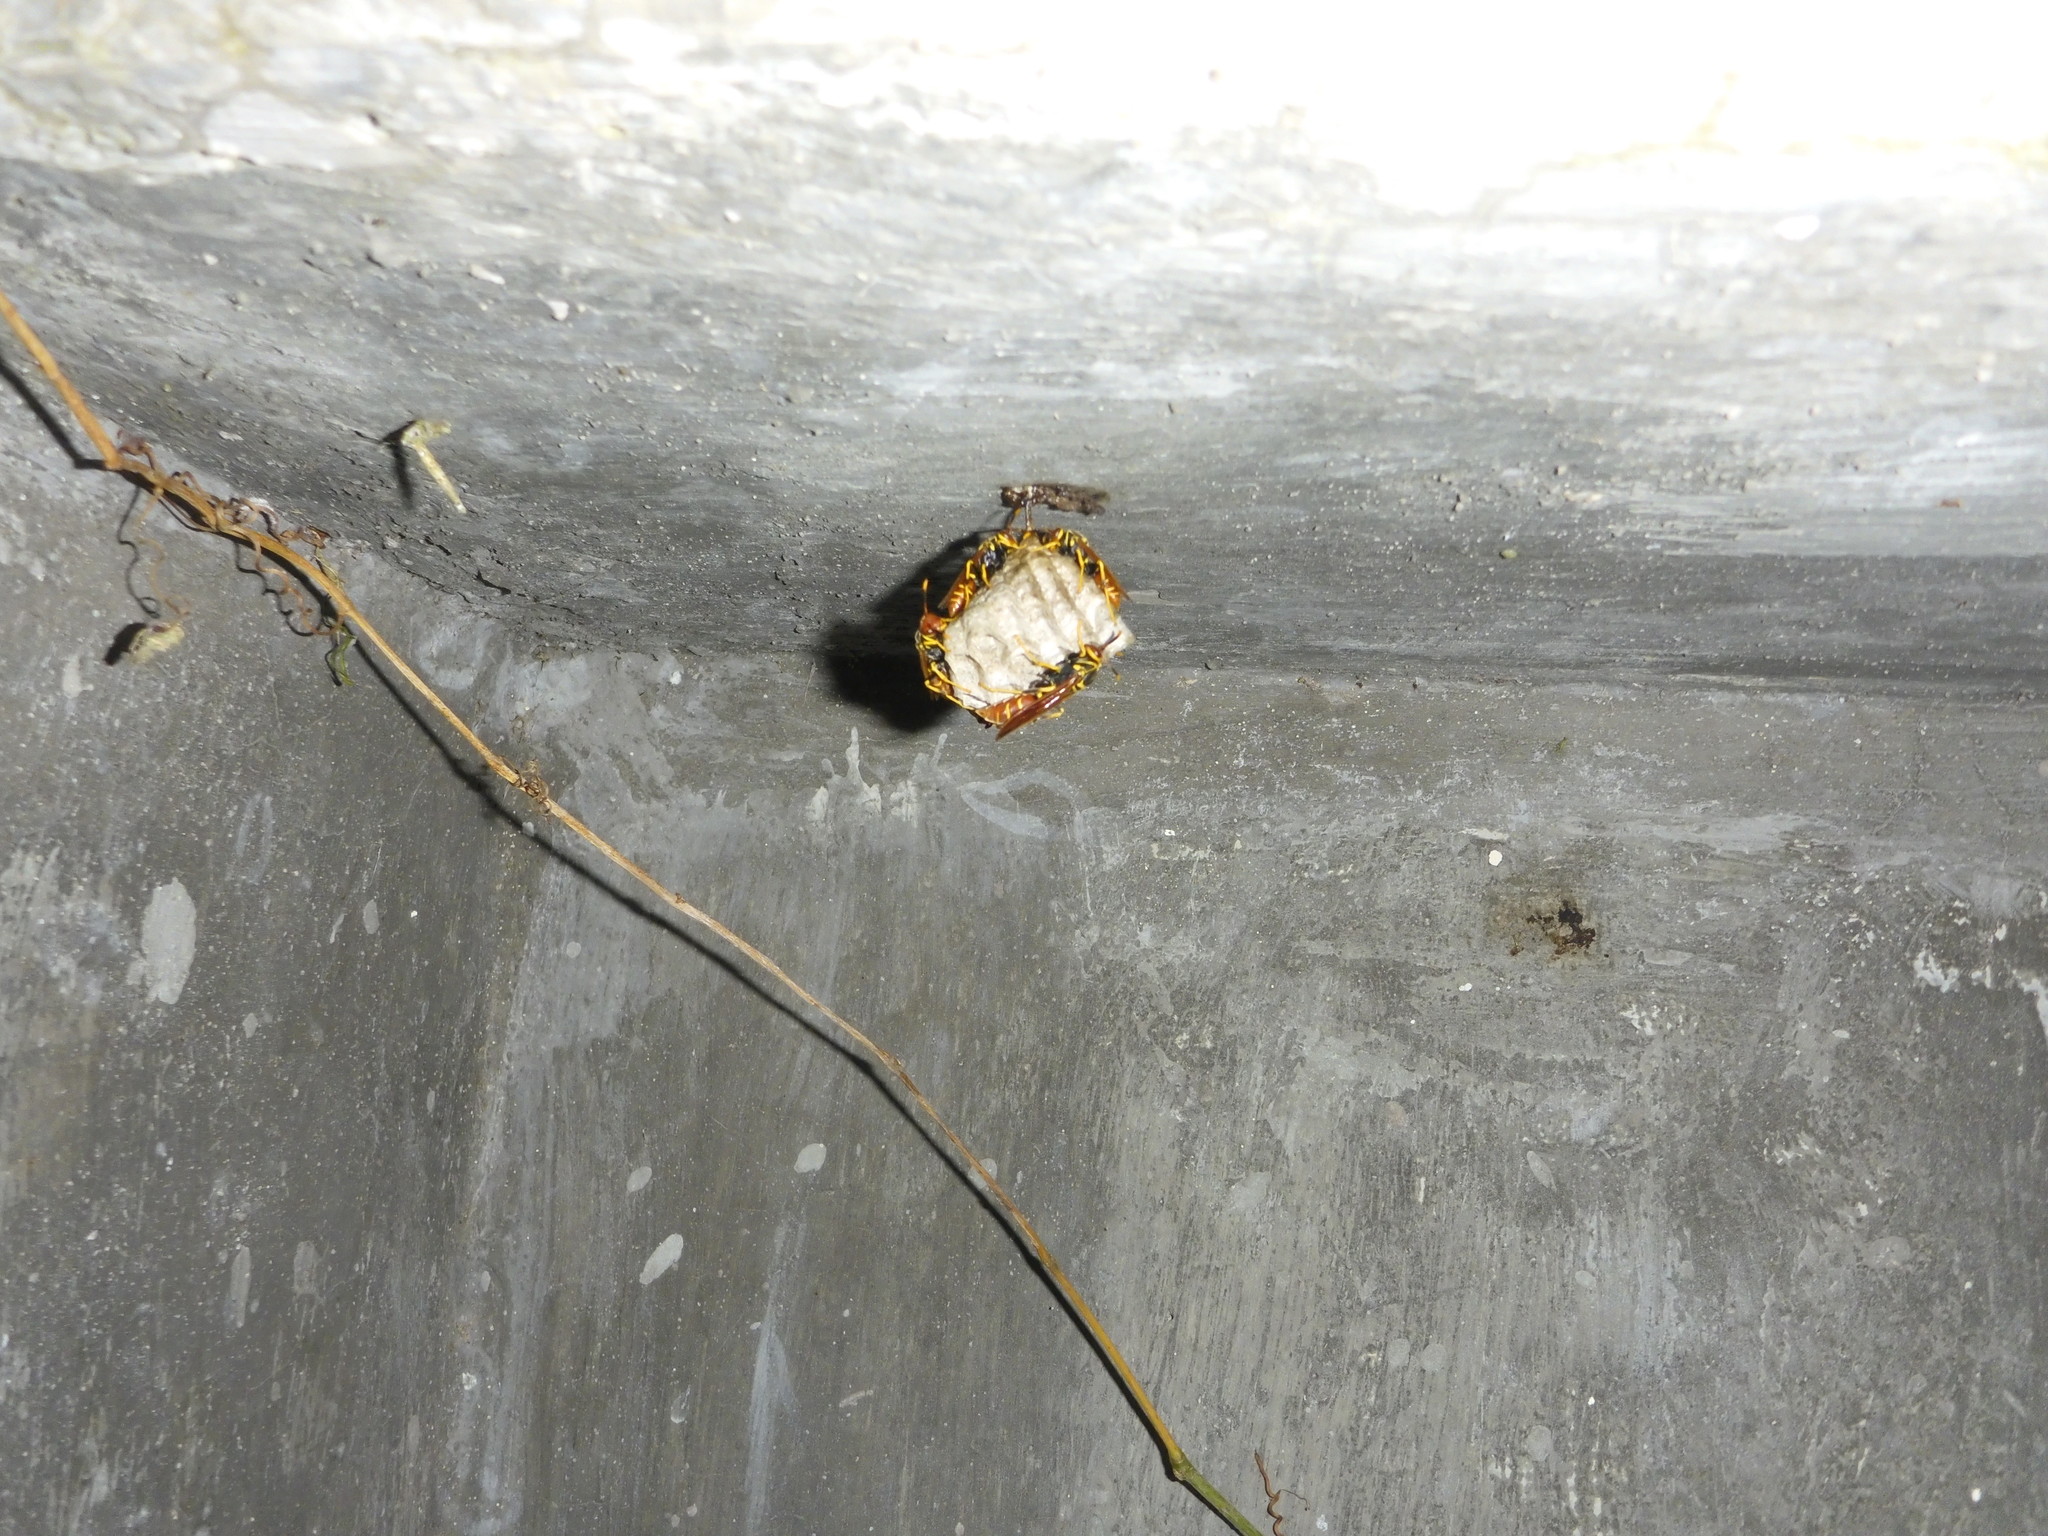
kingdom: Animalia
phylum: Arthropoda
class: Insecta
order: Hymenoptera
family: Eumenidae
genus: Polistes
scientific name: Polistes crinitus
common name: Jack spaniard
